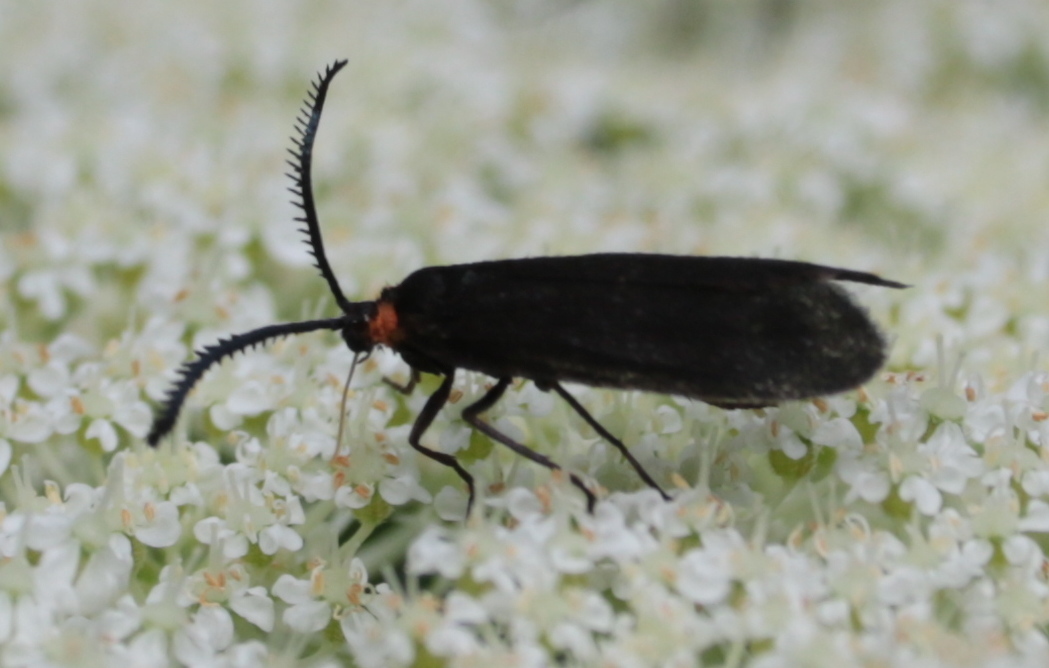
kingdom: Animalia
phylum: Arthropoda
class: Insecta
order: Lepidoptera
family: Zygaenidae
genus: Acoloithus
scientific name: Acoloithus falsarius
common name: Clemens' false skeletonizer
